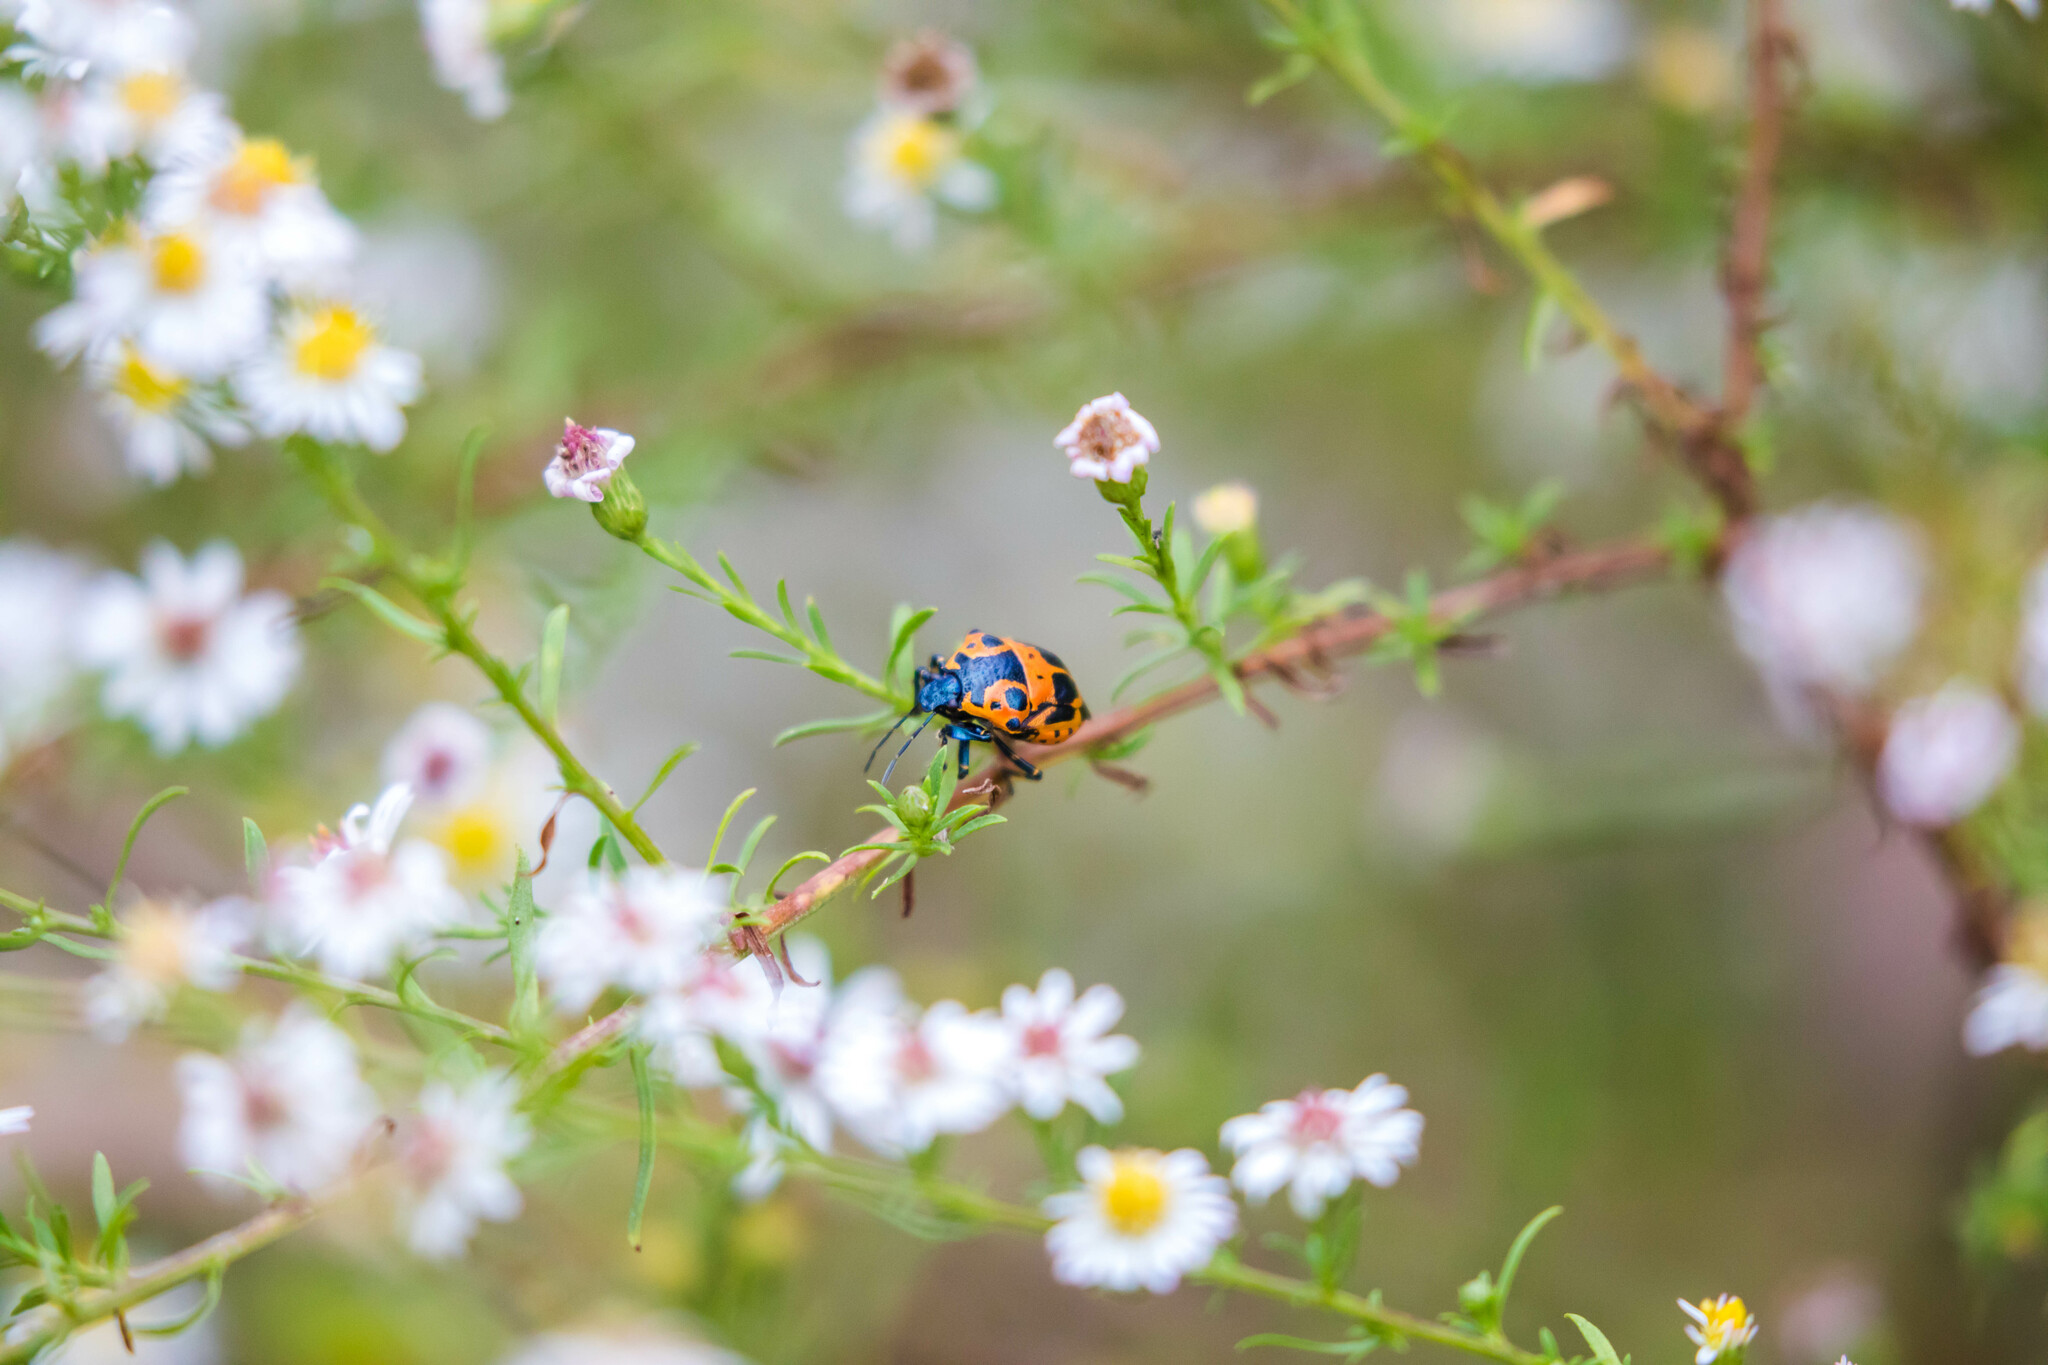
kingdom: Animalia
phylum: Arthropoda
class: Insecta
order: Hemiptera
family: Pentatomidae
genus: Stiretrus
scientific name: Stiretrus anchorago
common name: Anchor stink bug
